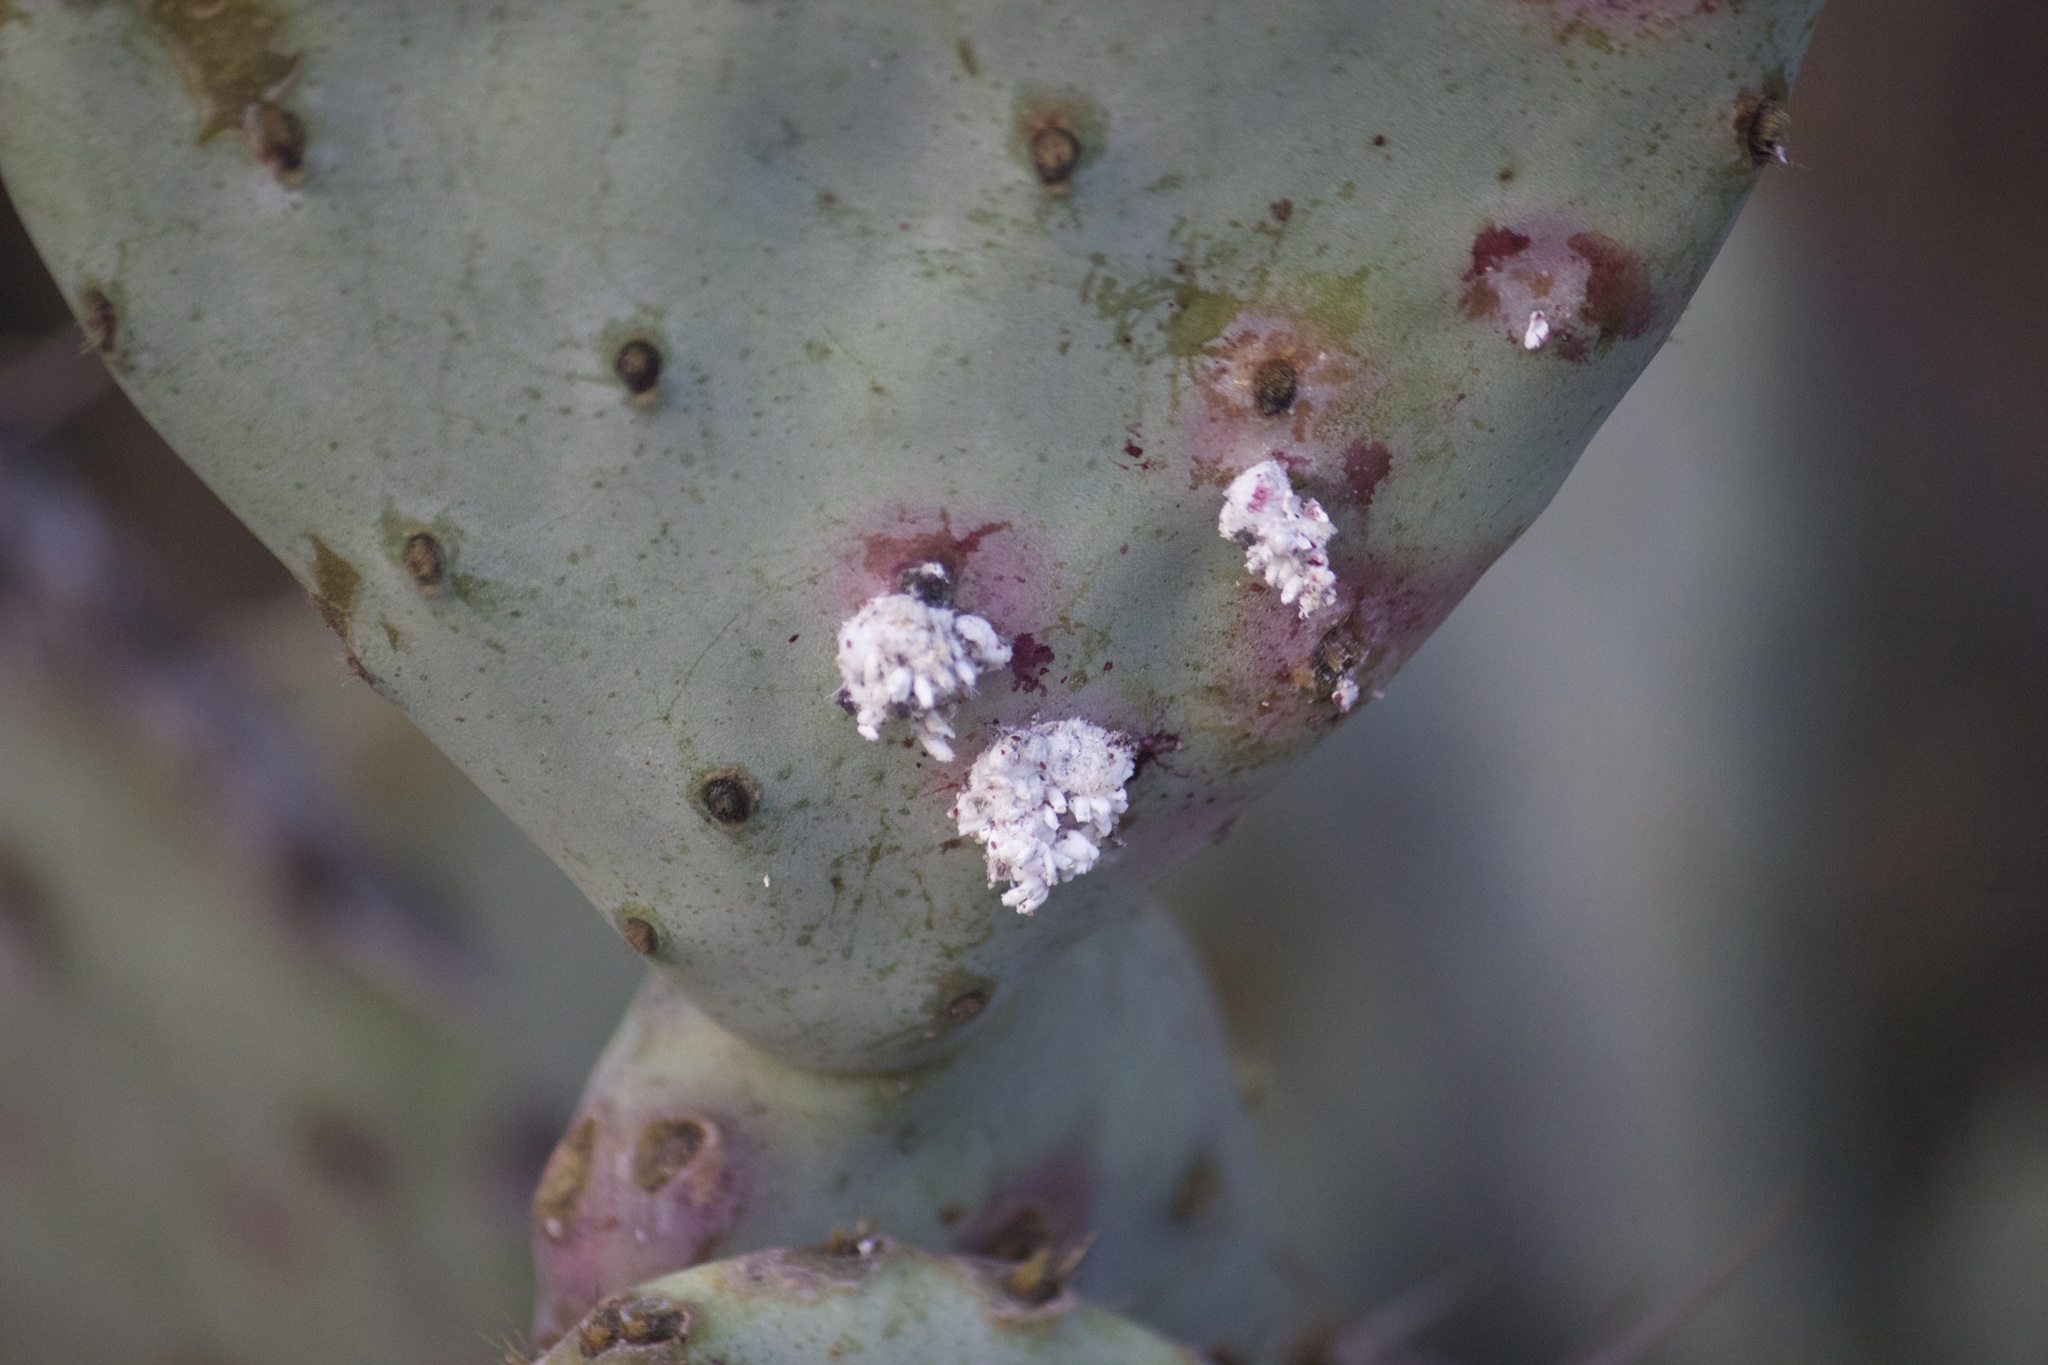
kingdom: Animalia
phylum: Arthropoda
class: Insecta
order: Hemiptera
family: Dactylopiidae
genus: Dactylopius
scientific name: Dactylopius
